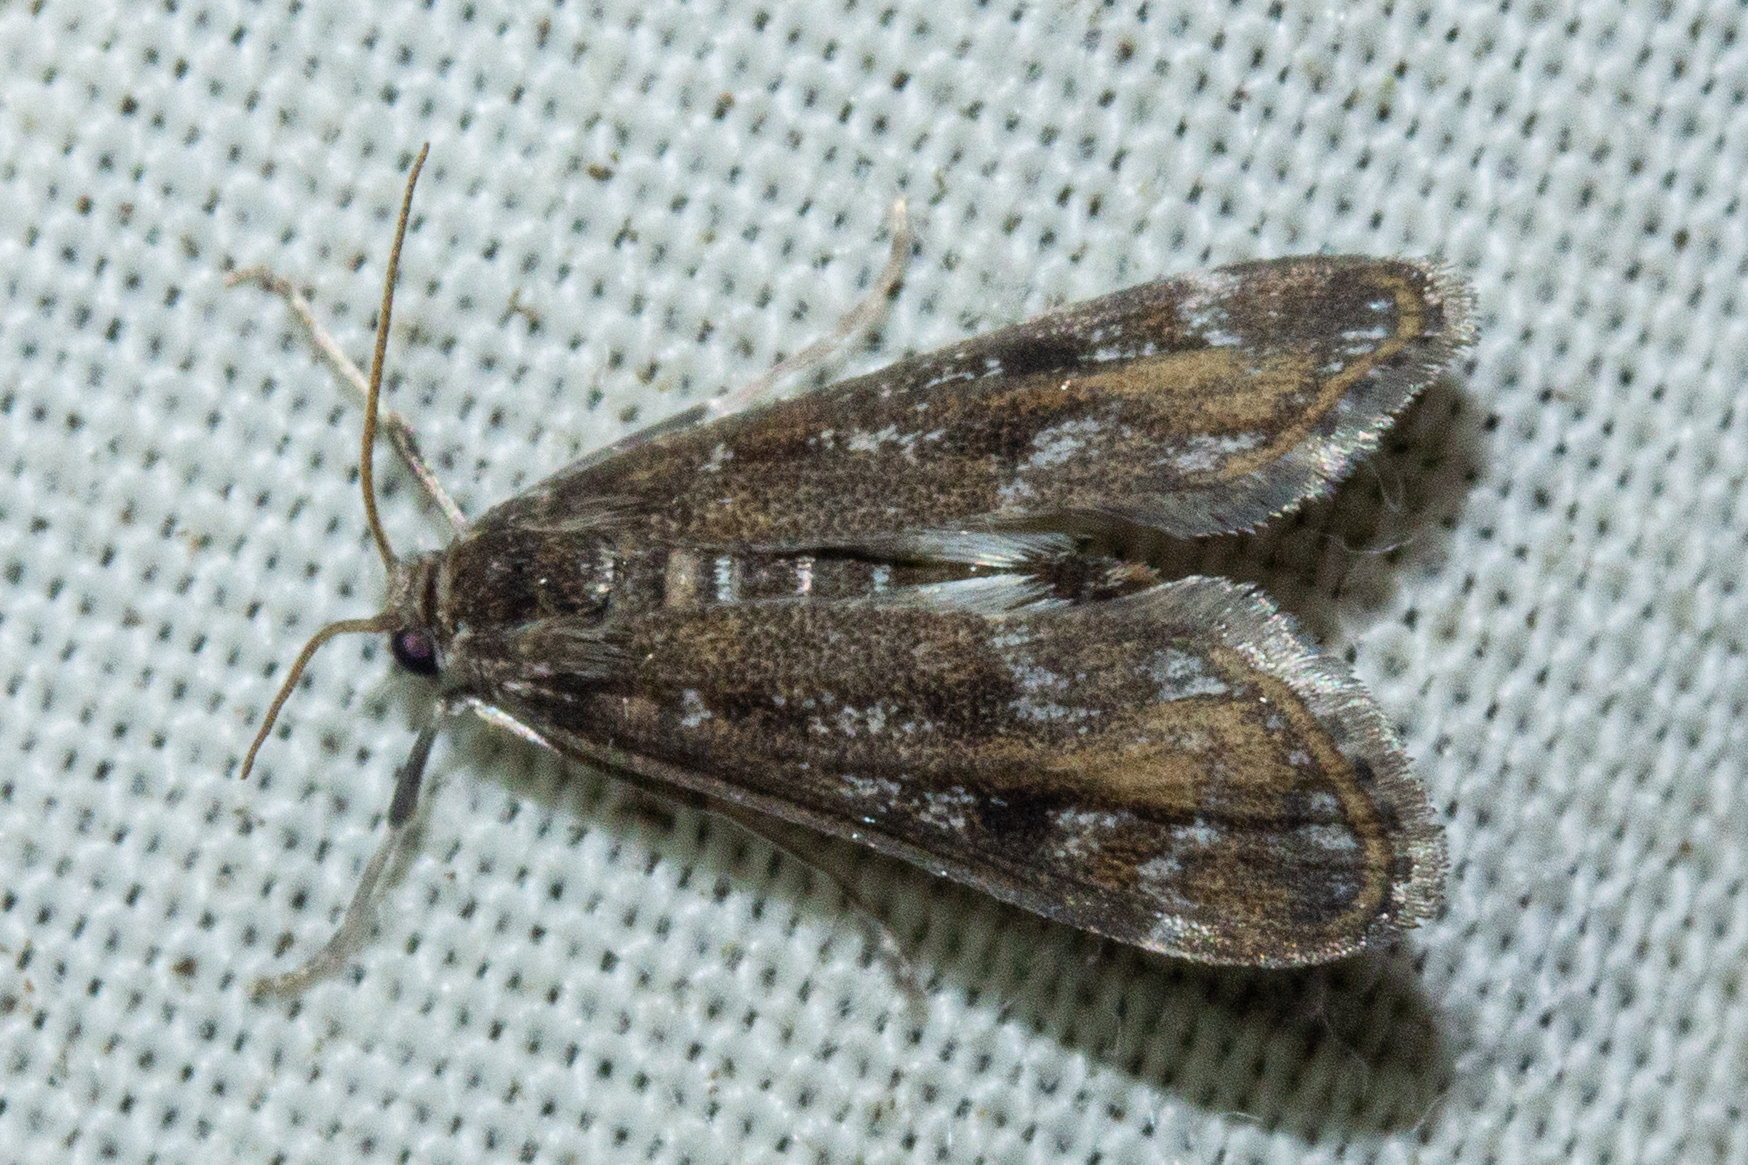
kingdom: Animalia
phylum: Arthropoda
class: Insecta
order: Lepidoptera
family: Crambidae
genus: Hygraula
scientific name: Hygraula nitens
